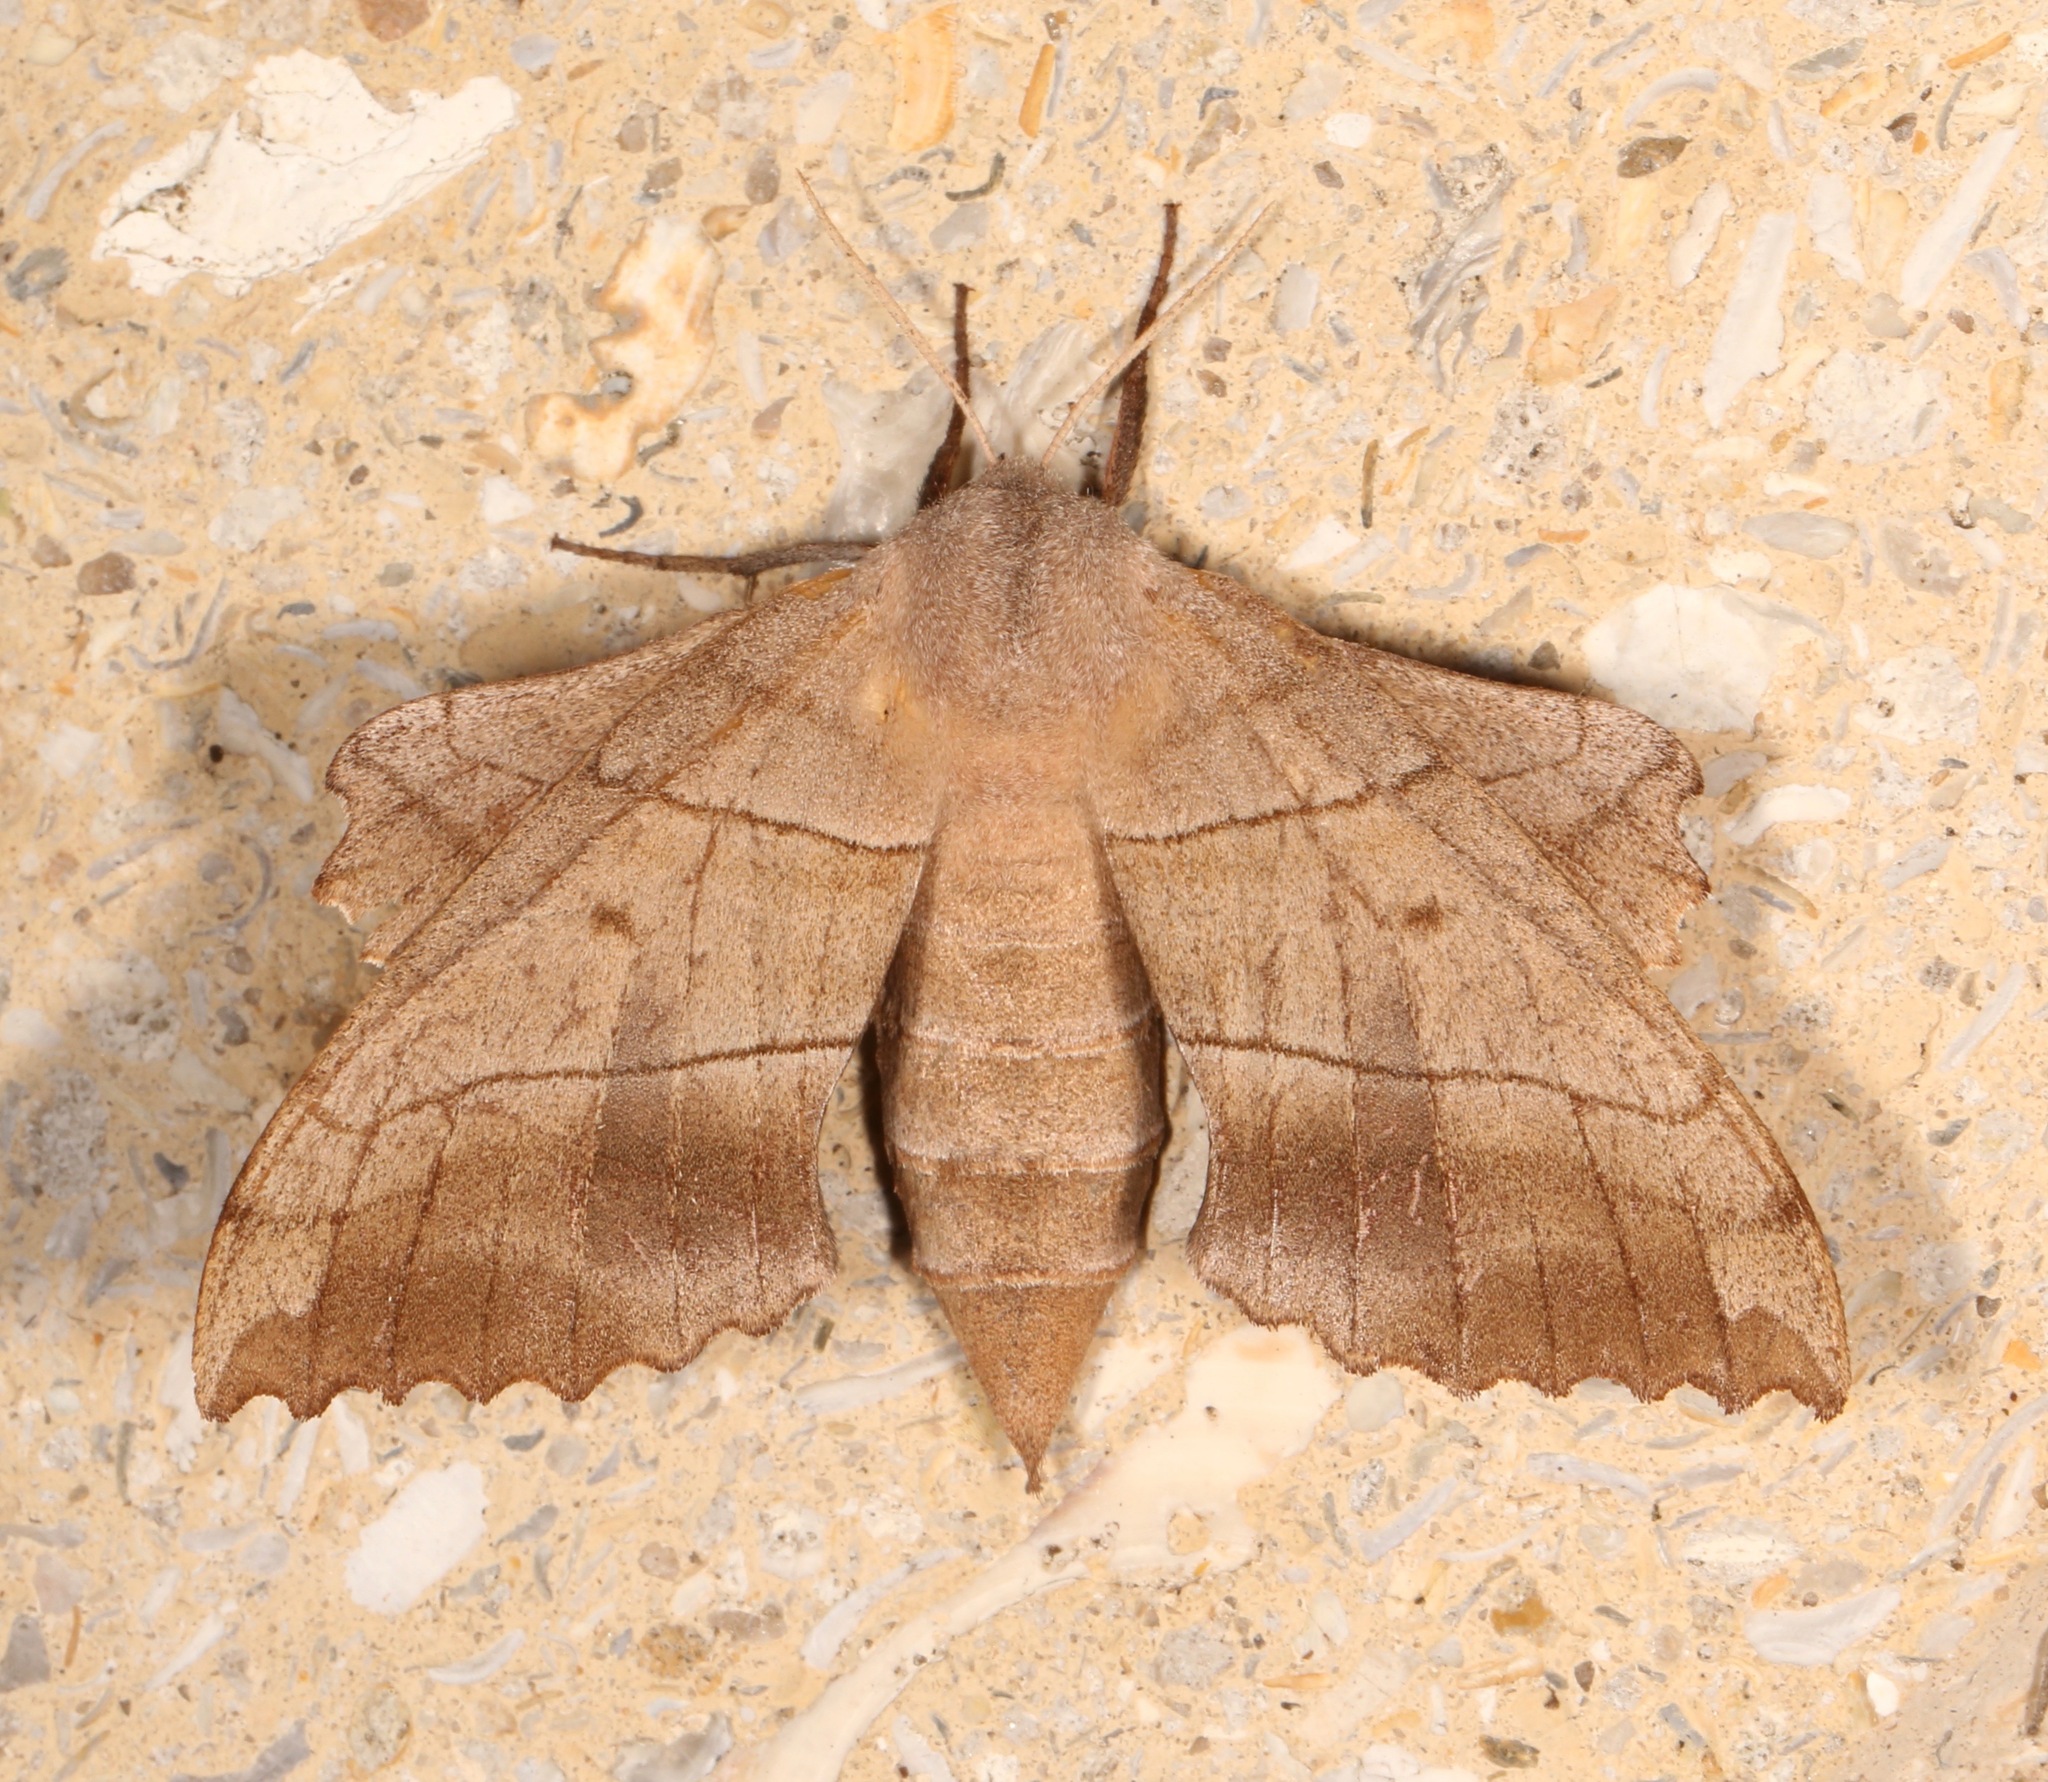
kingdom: Animalia
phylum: Arthropoda
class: Insecta
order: Lepidoptera
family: Sphingidae
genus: Amorpha
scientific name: Amorpha juglandis
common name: Walnut sphinx
